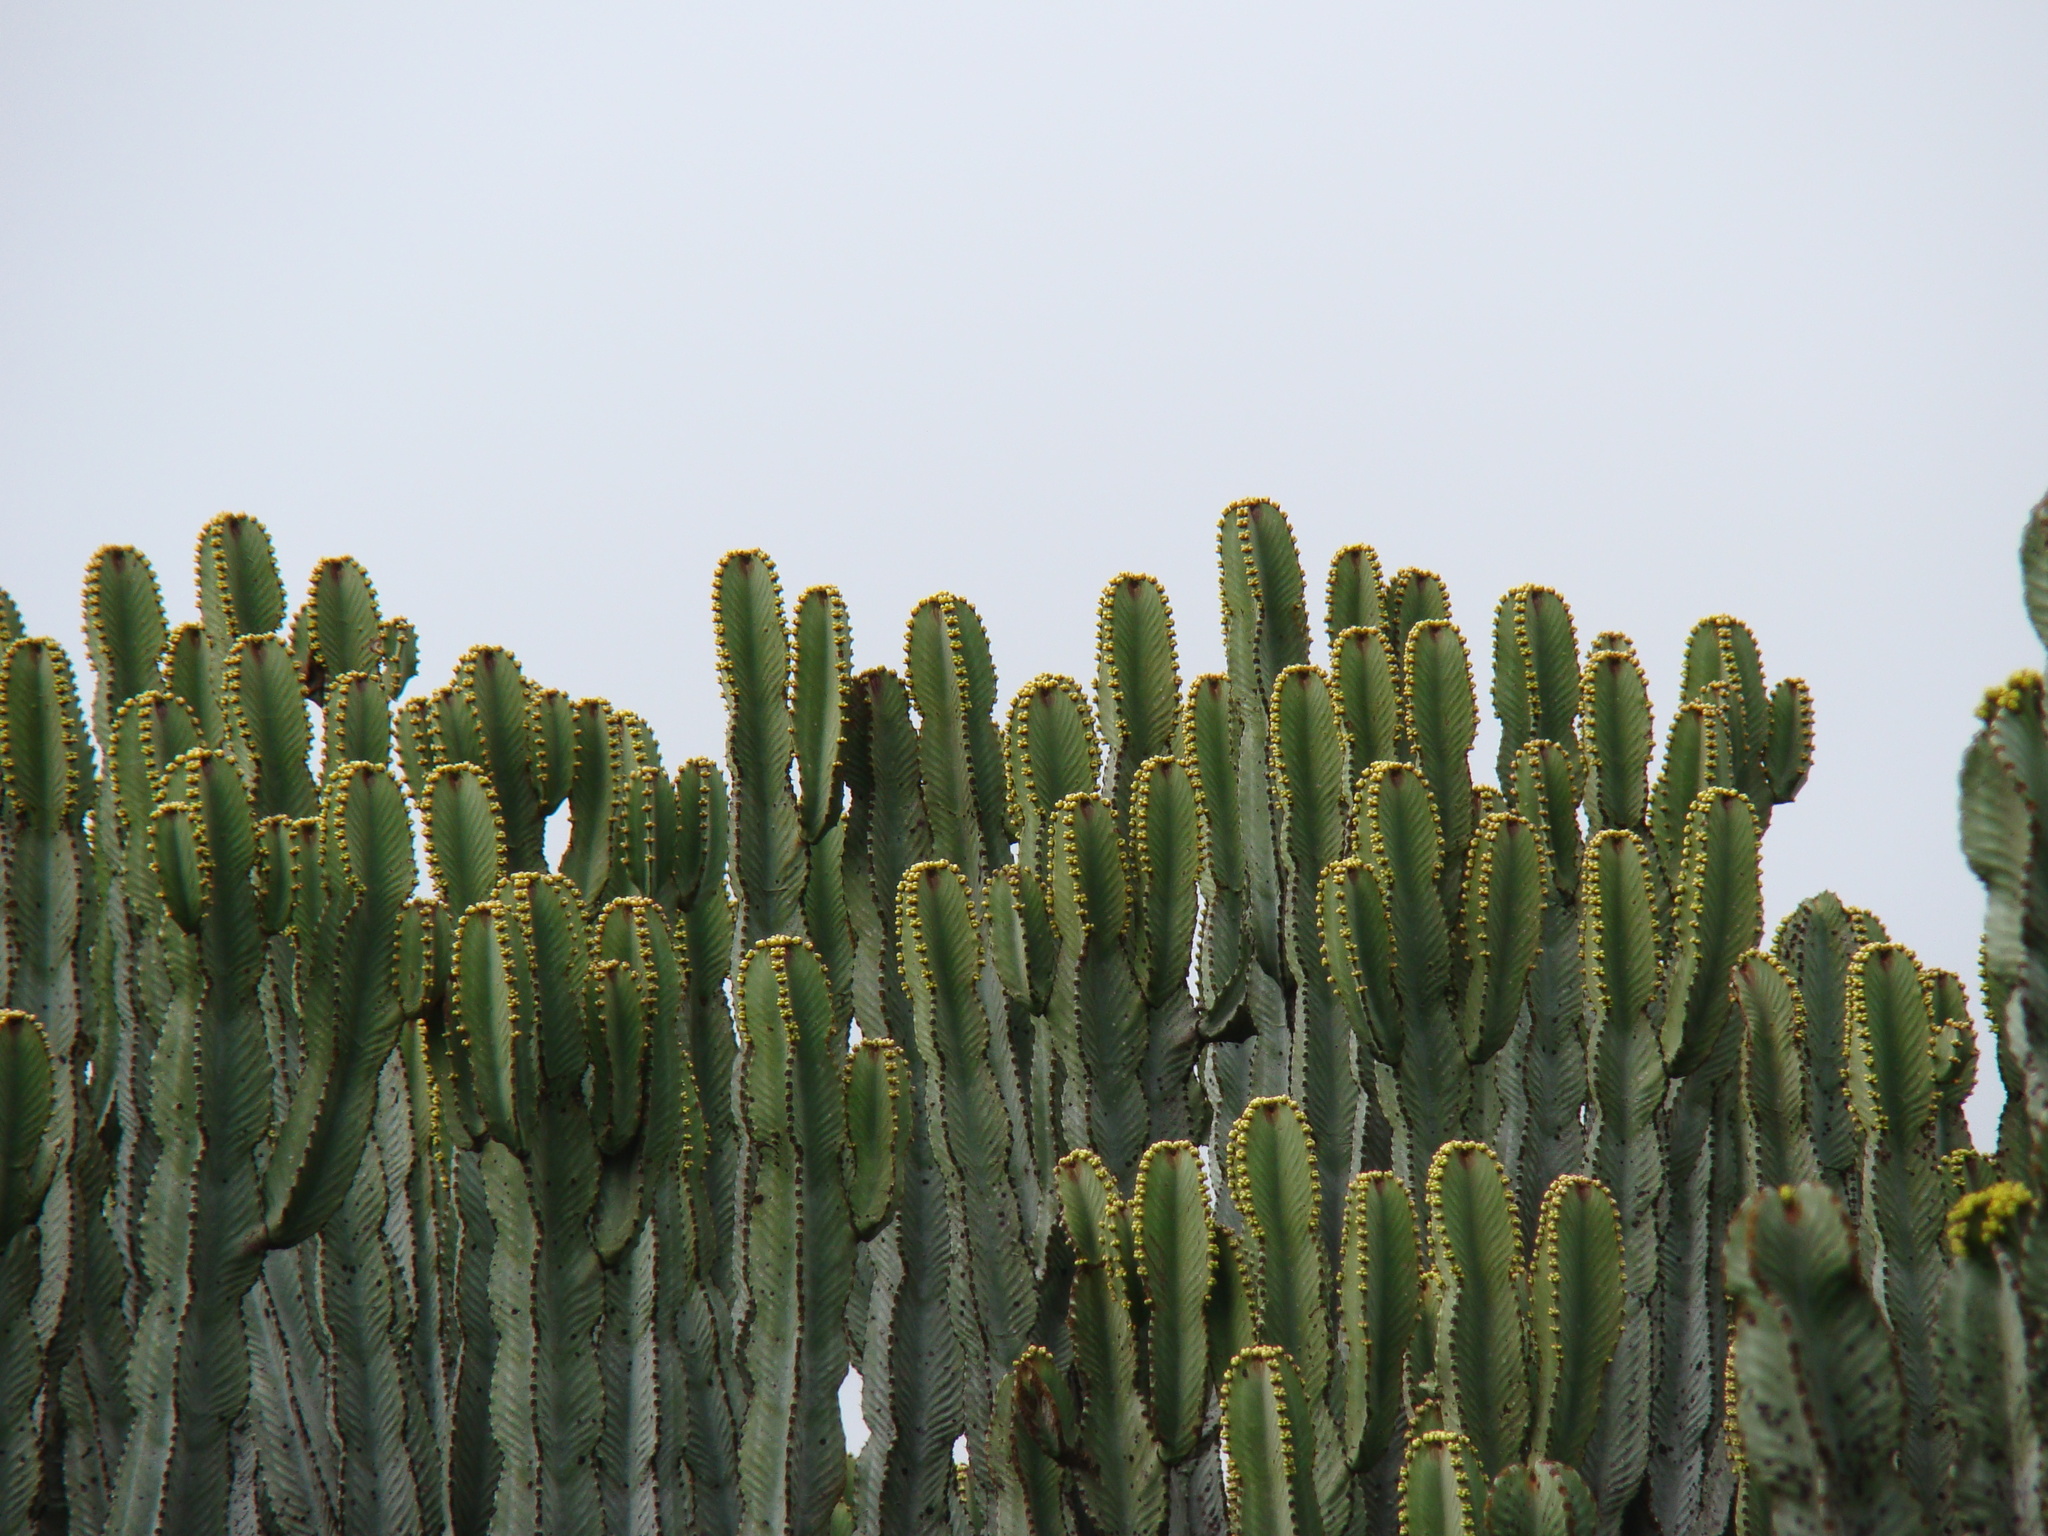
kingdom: Plantae
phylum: Tracheophyta
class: Magnoliopsida
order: Malpighiales
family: Euphorbiaceae
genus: Euphorbia
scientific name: Euphorbia ingens
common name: Cactus spurge
